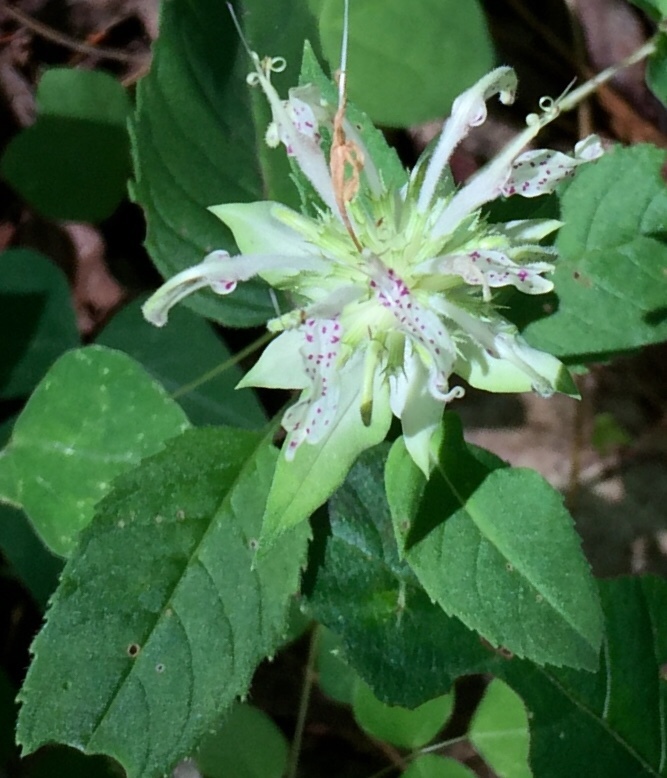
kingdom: Plantae
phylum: Tracheophyta
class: Magnoliopsida
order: Lamiales
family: Lamiaceae
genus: Monarda
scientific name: Monarda clinopodia
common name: Basil beebalm
